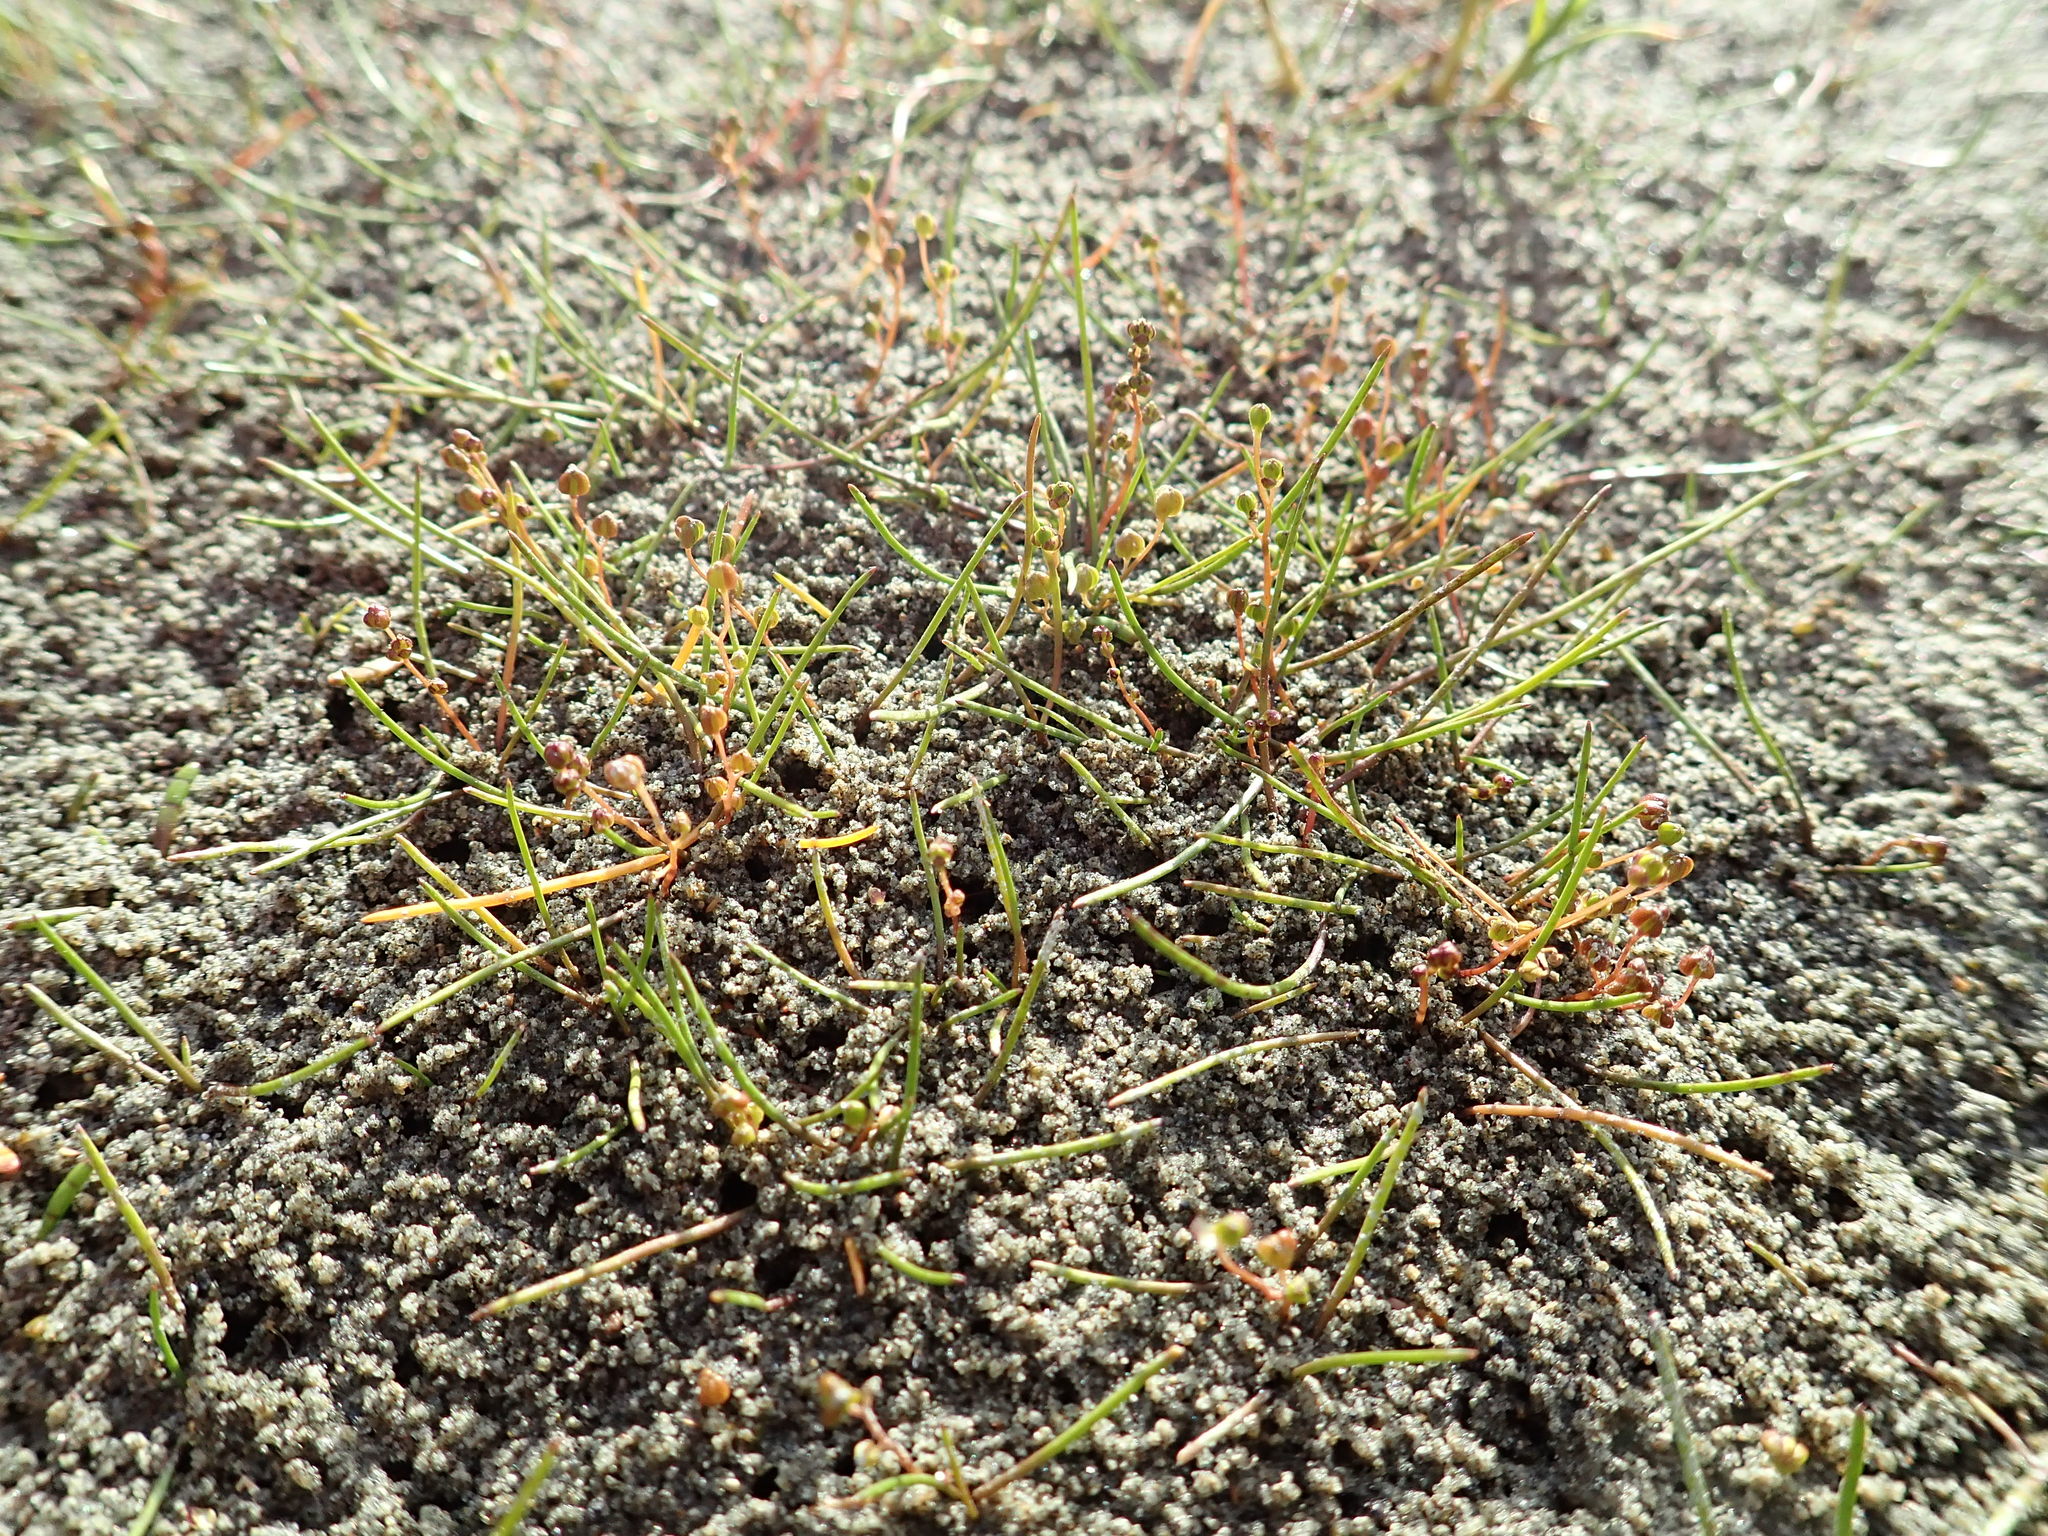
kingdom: Plantae
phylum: Tracheophyta
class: Liliopsida
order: Alismatales
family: Juncaginaceae
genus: Triglochin
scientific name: Triglochin striata
